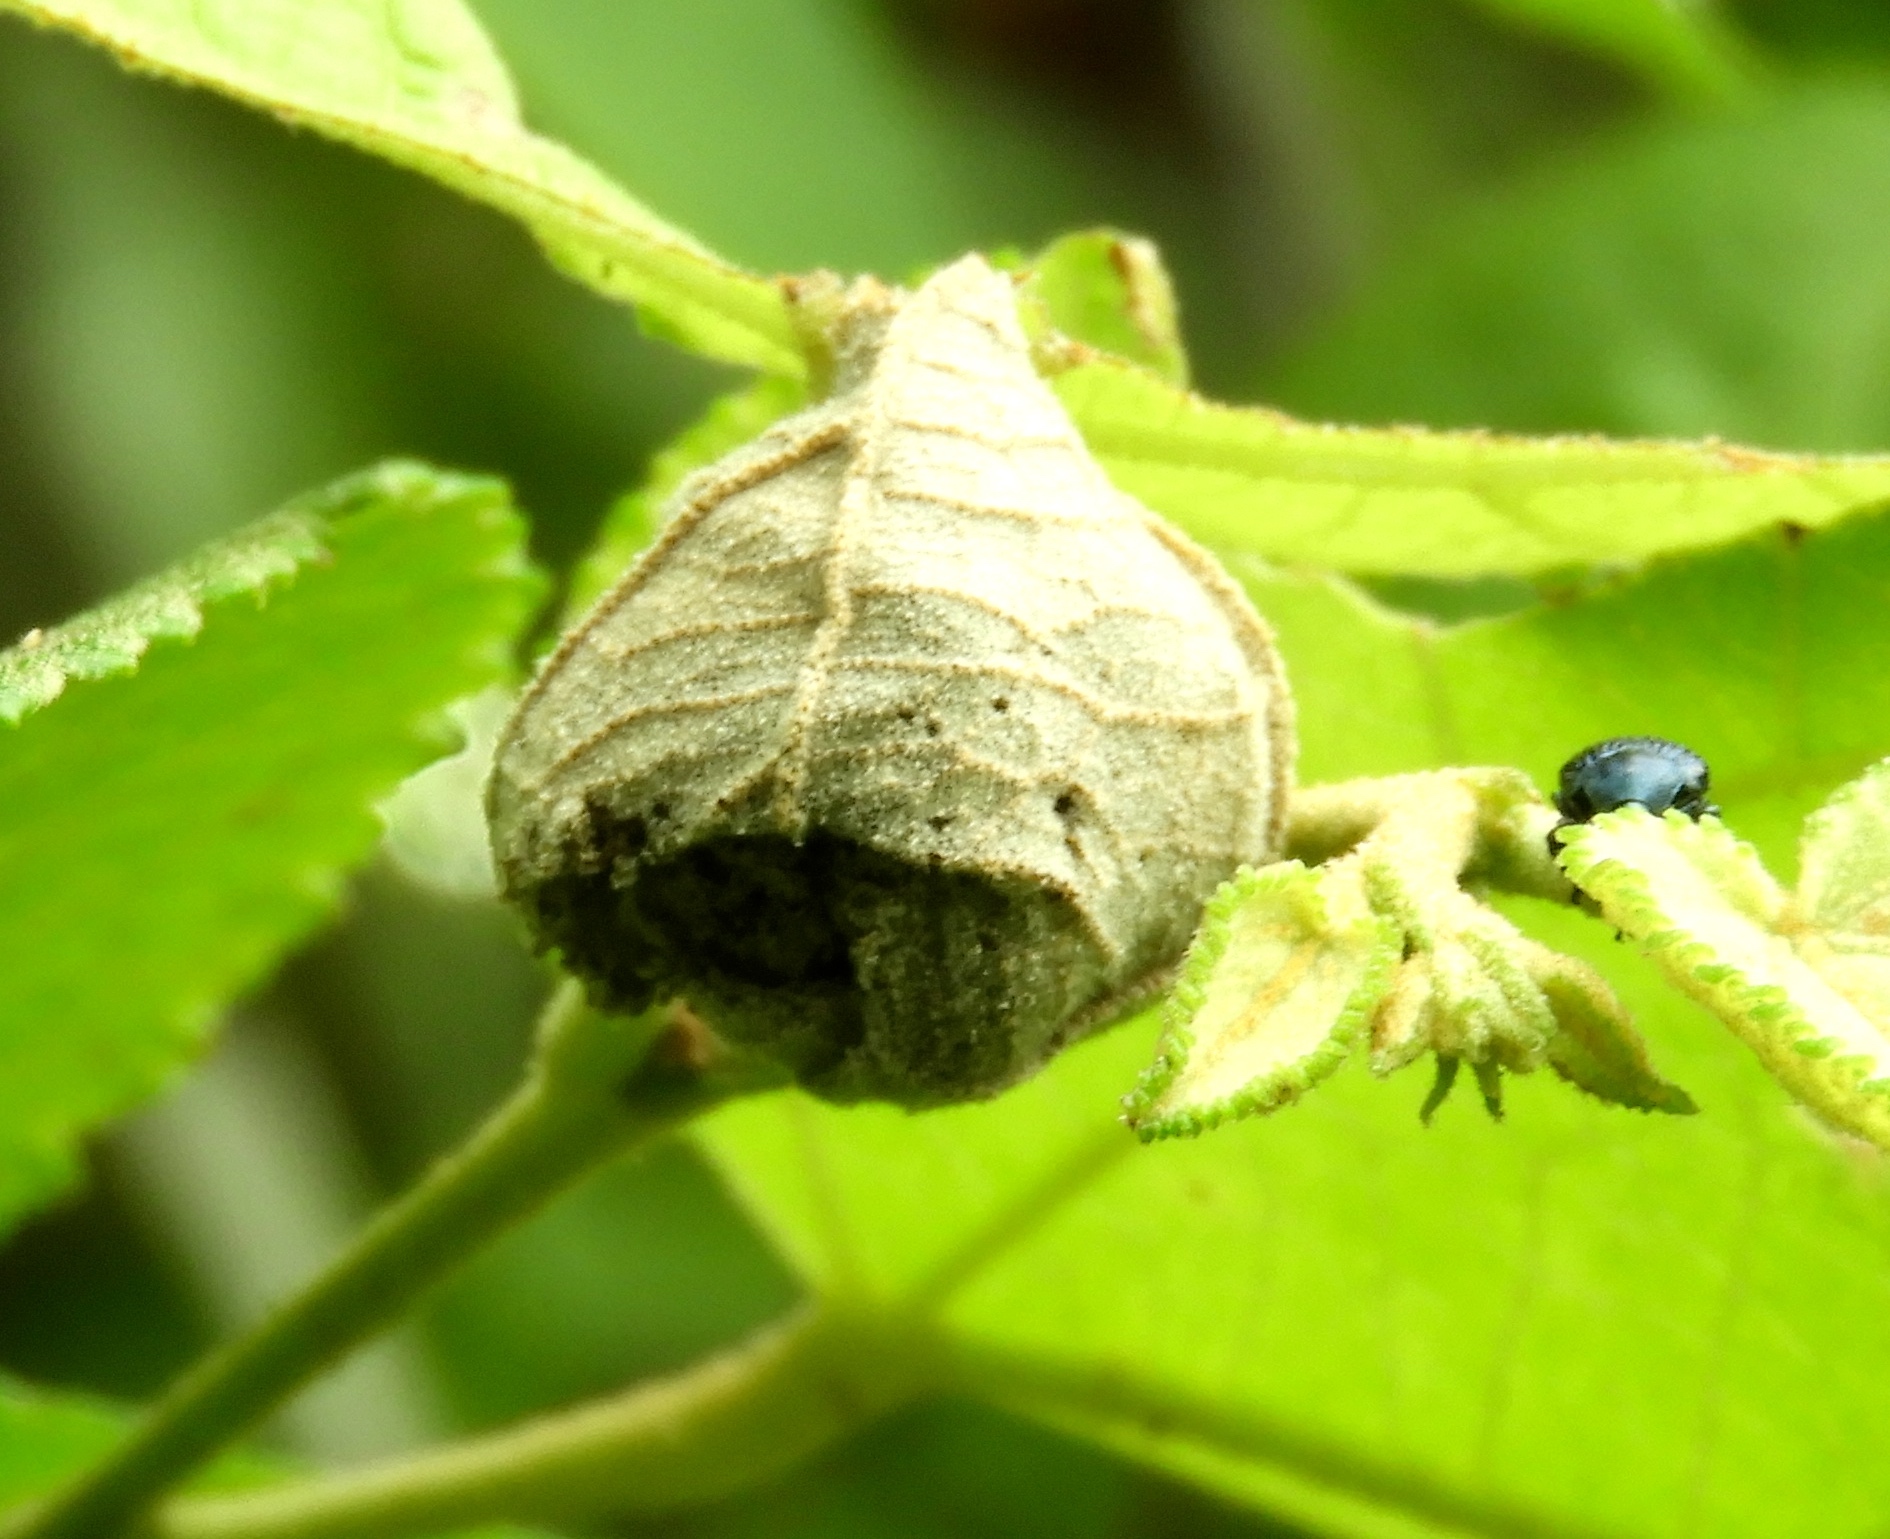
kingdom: Animalia
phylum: Arthropoda
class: Insecta
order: Coleoptera
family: Attelabidae
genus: Pterocolus
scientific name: Pterocolus
